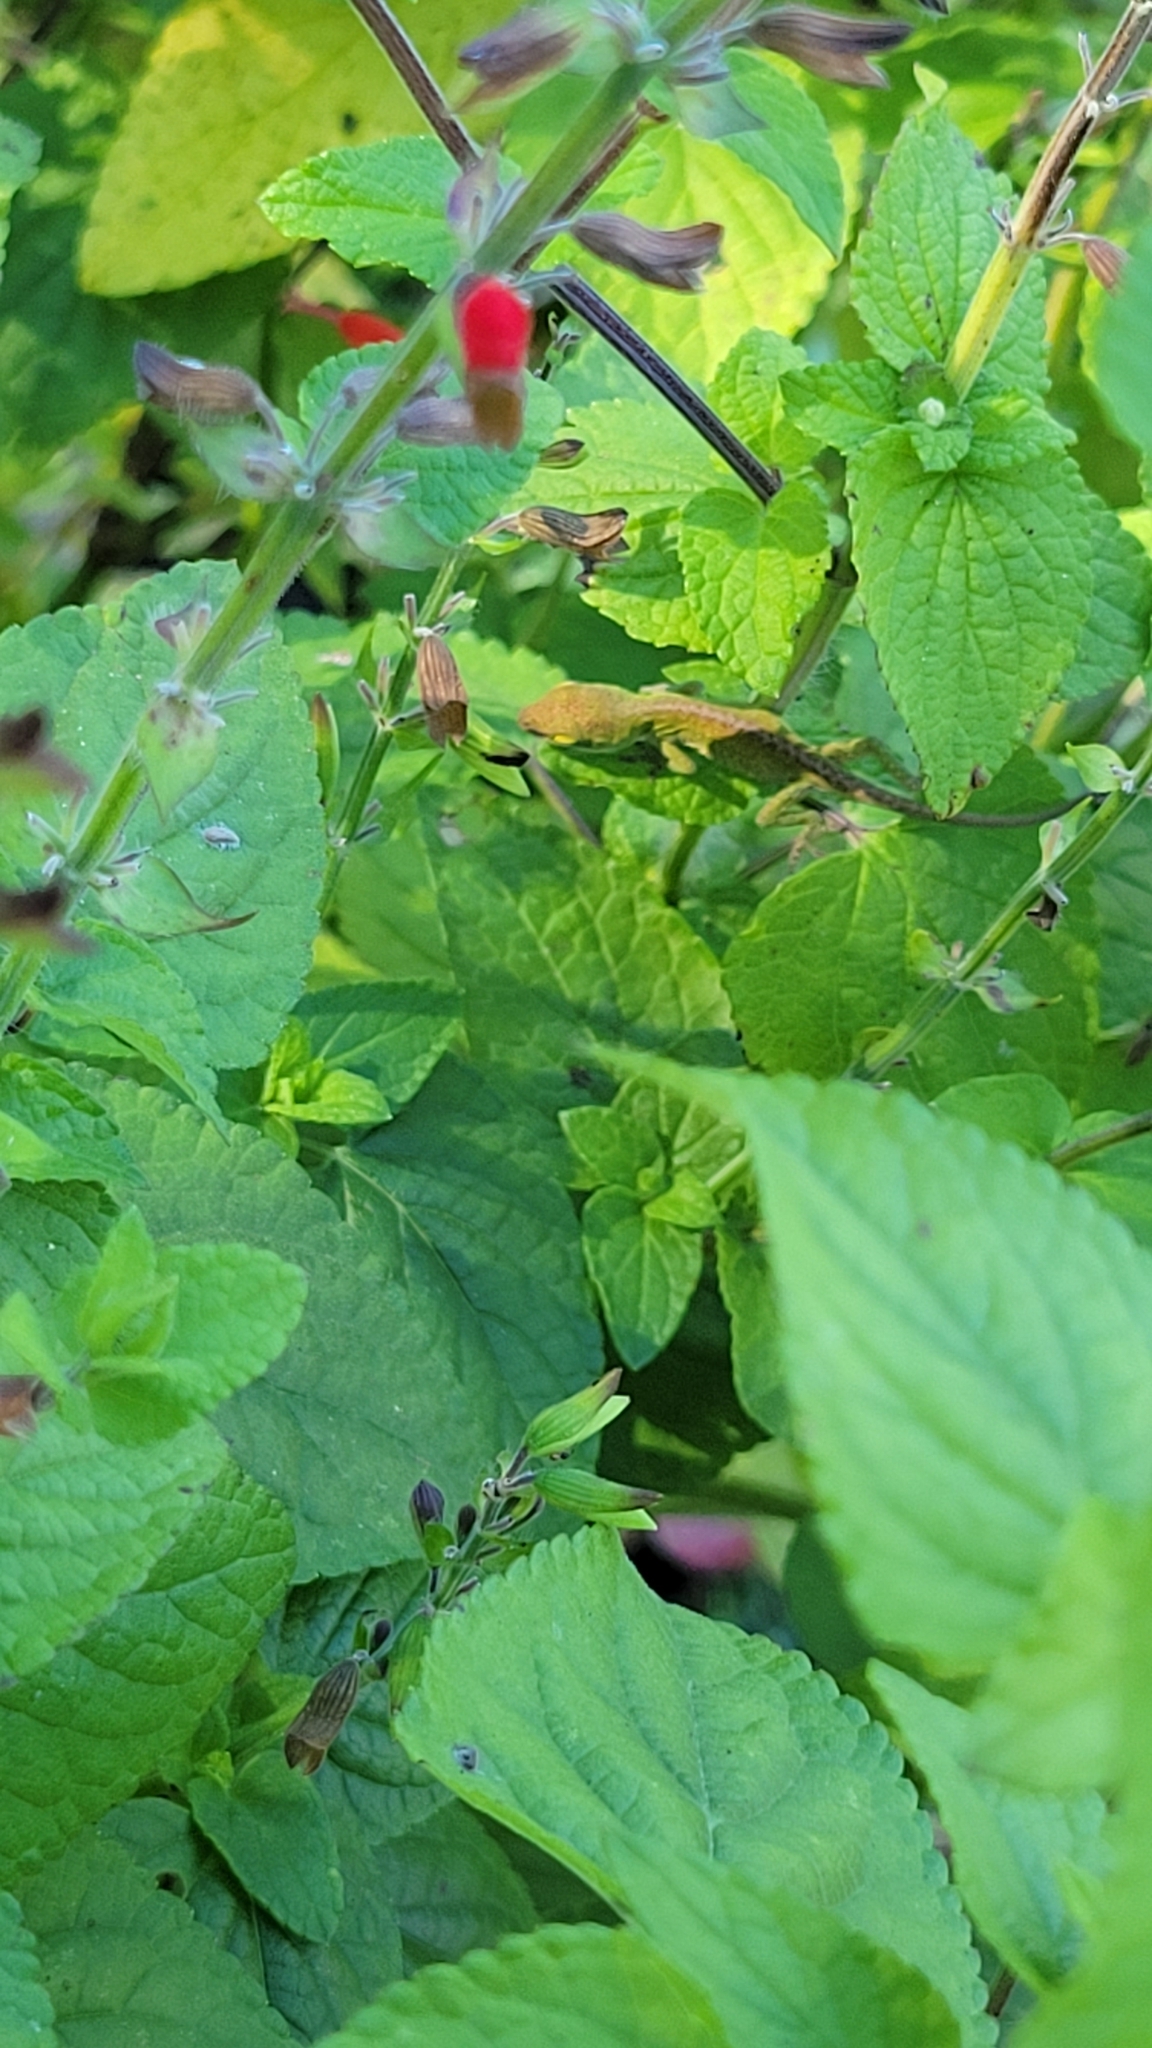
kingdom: Animalia
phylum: Chordata
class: Squamata
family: Dactyloidae
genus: Anolis
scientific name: Anolis carolinensis
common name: Green anole
